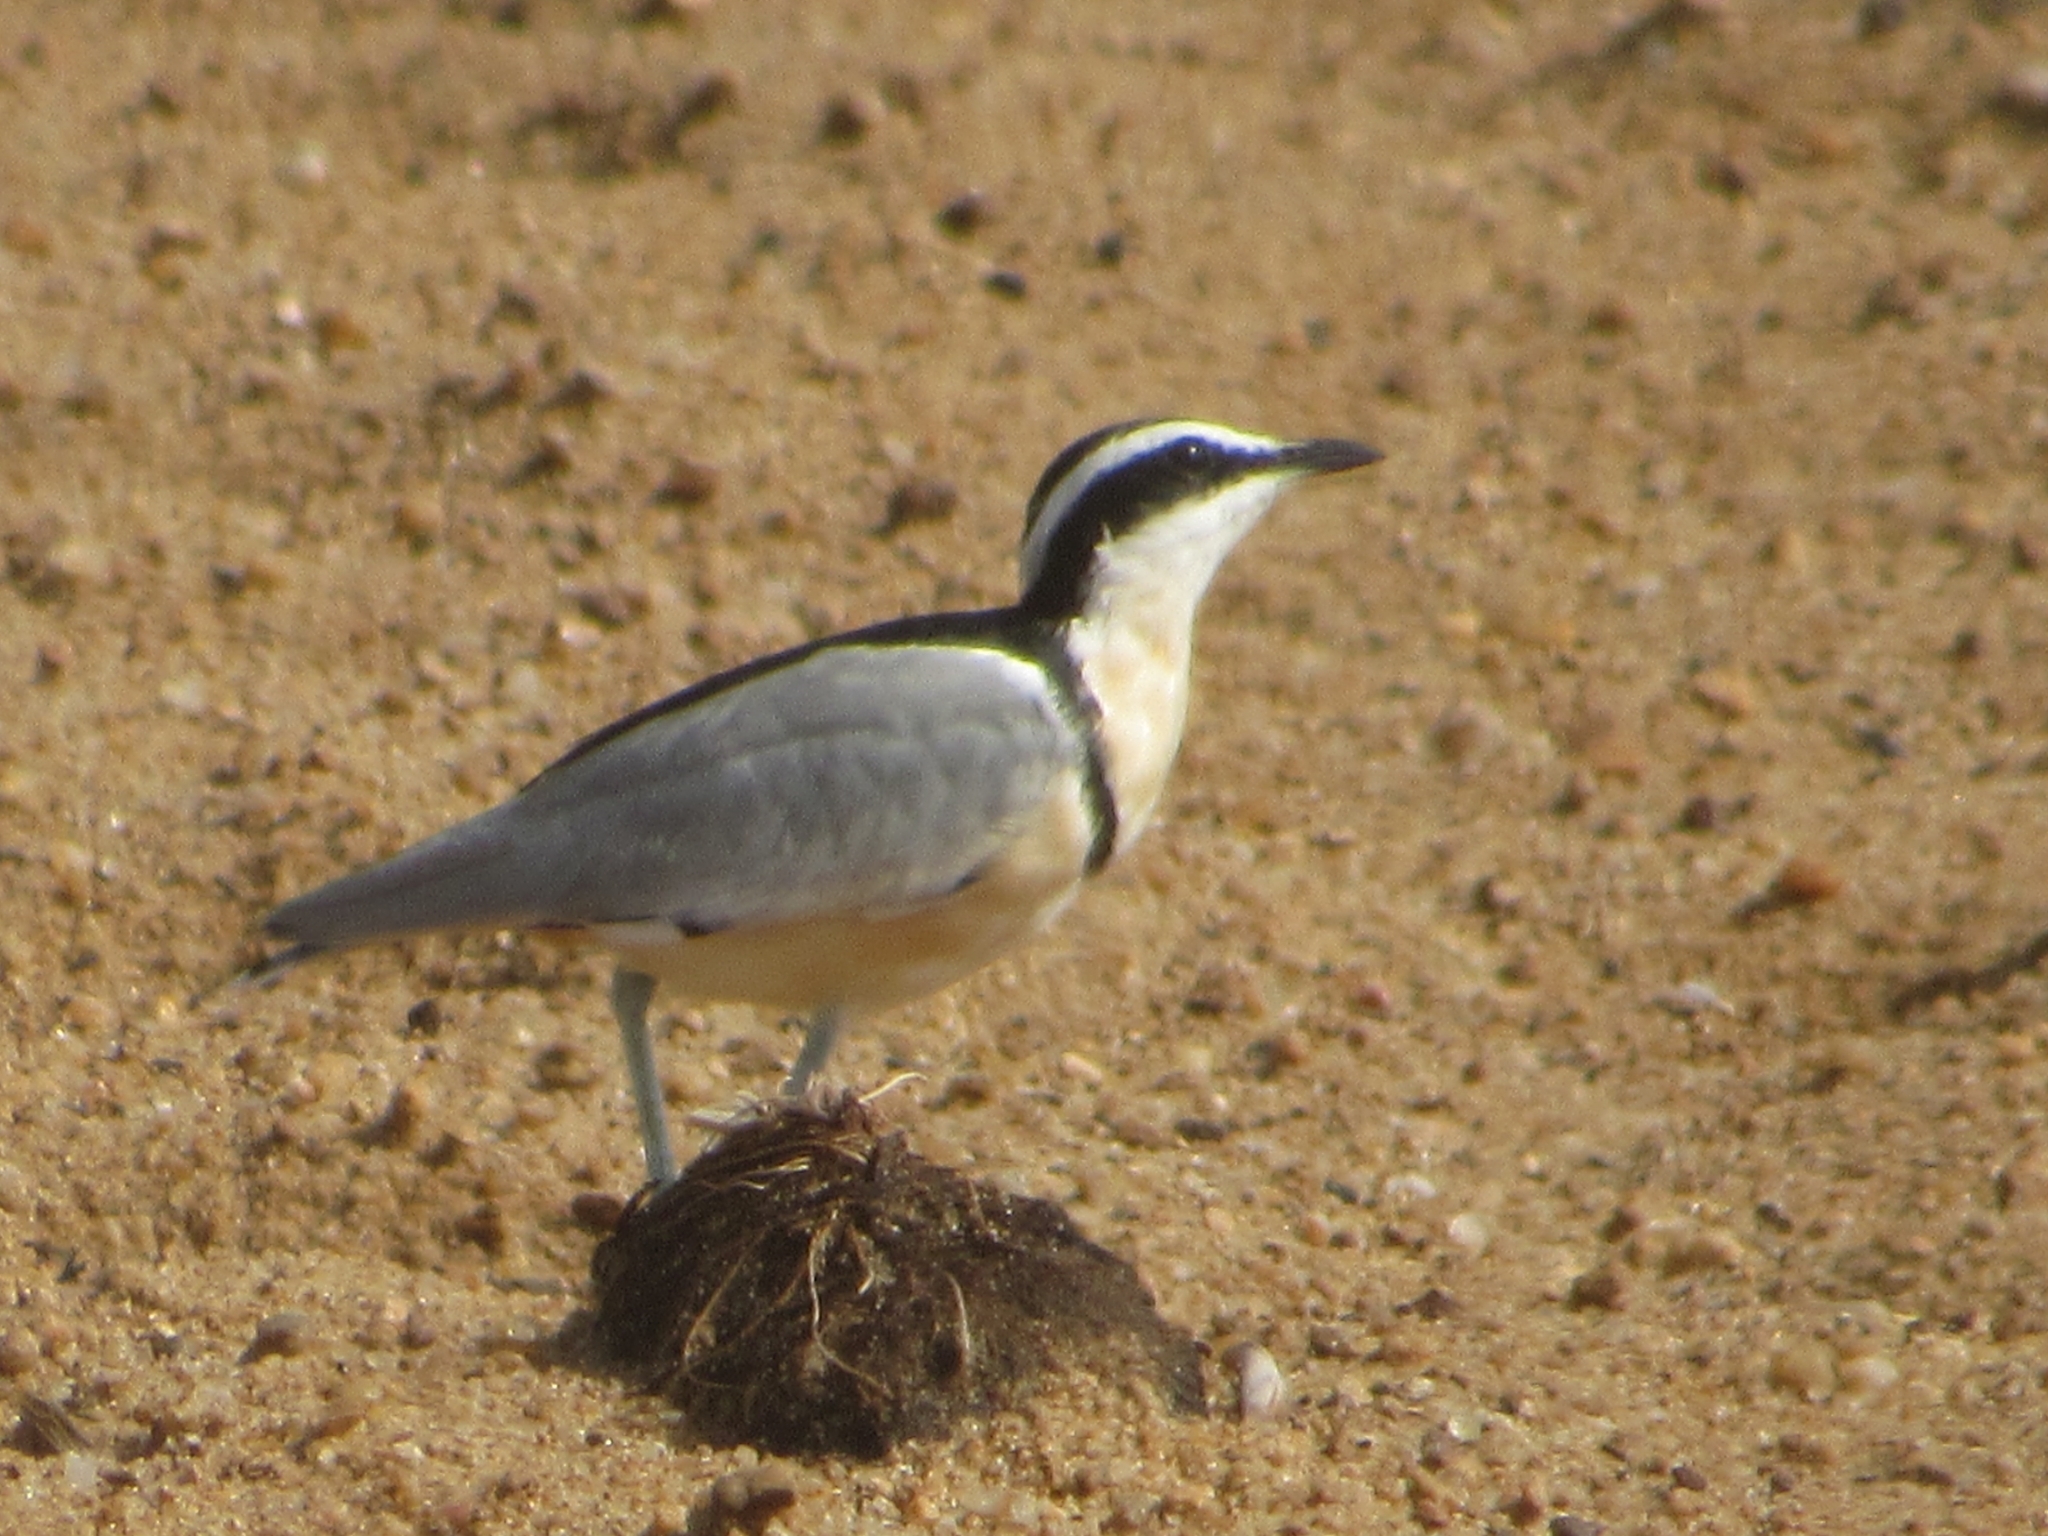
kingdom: Animalia
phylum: Chordata
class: Aves
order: Charadriiformes
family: Pluvianidae
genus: Pluvianus
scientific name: Pluvianus aegyptius
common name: Egyptian plover
